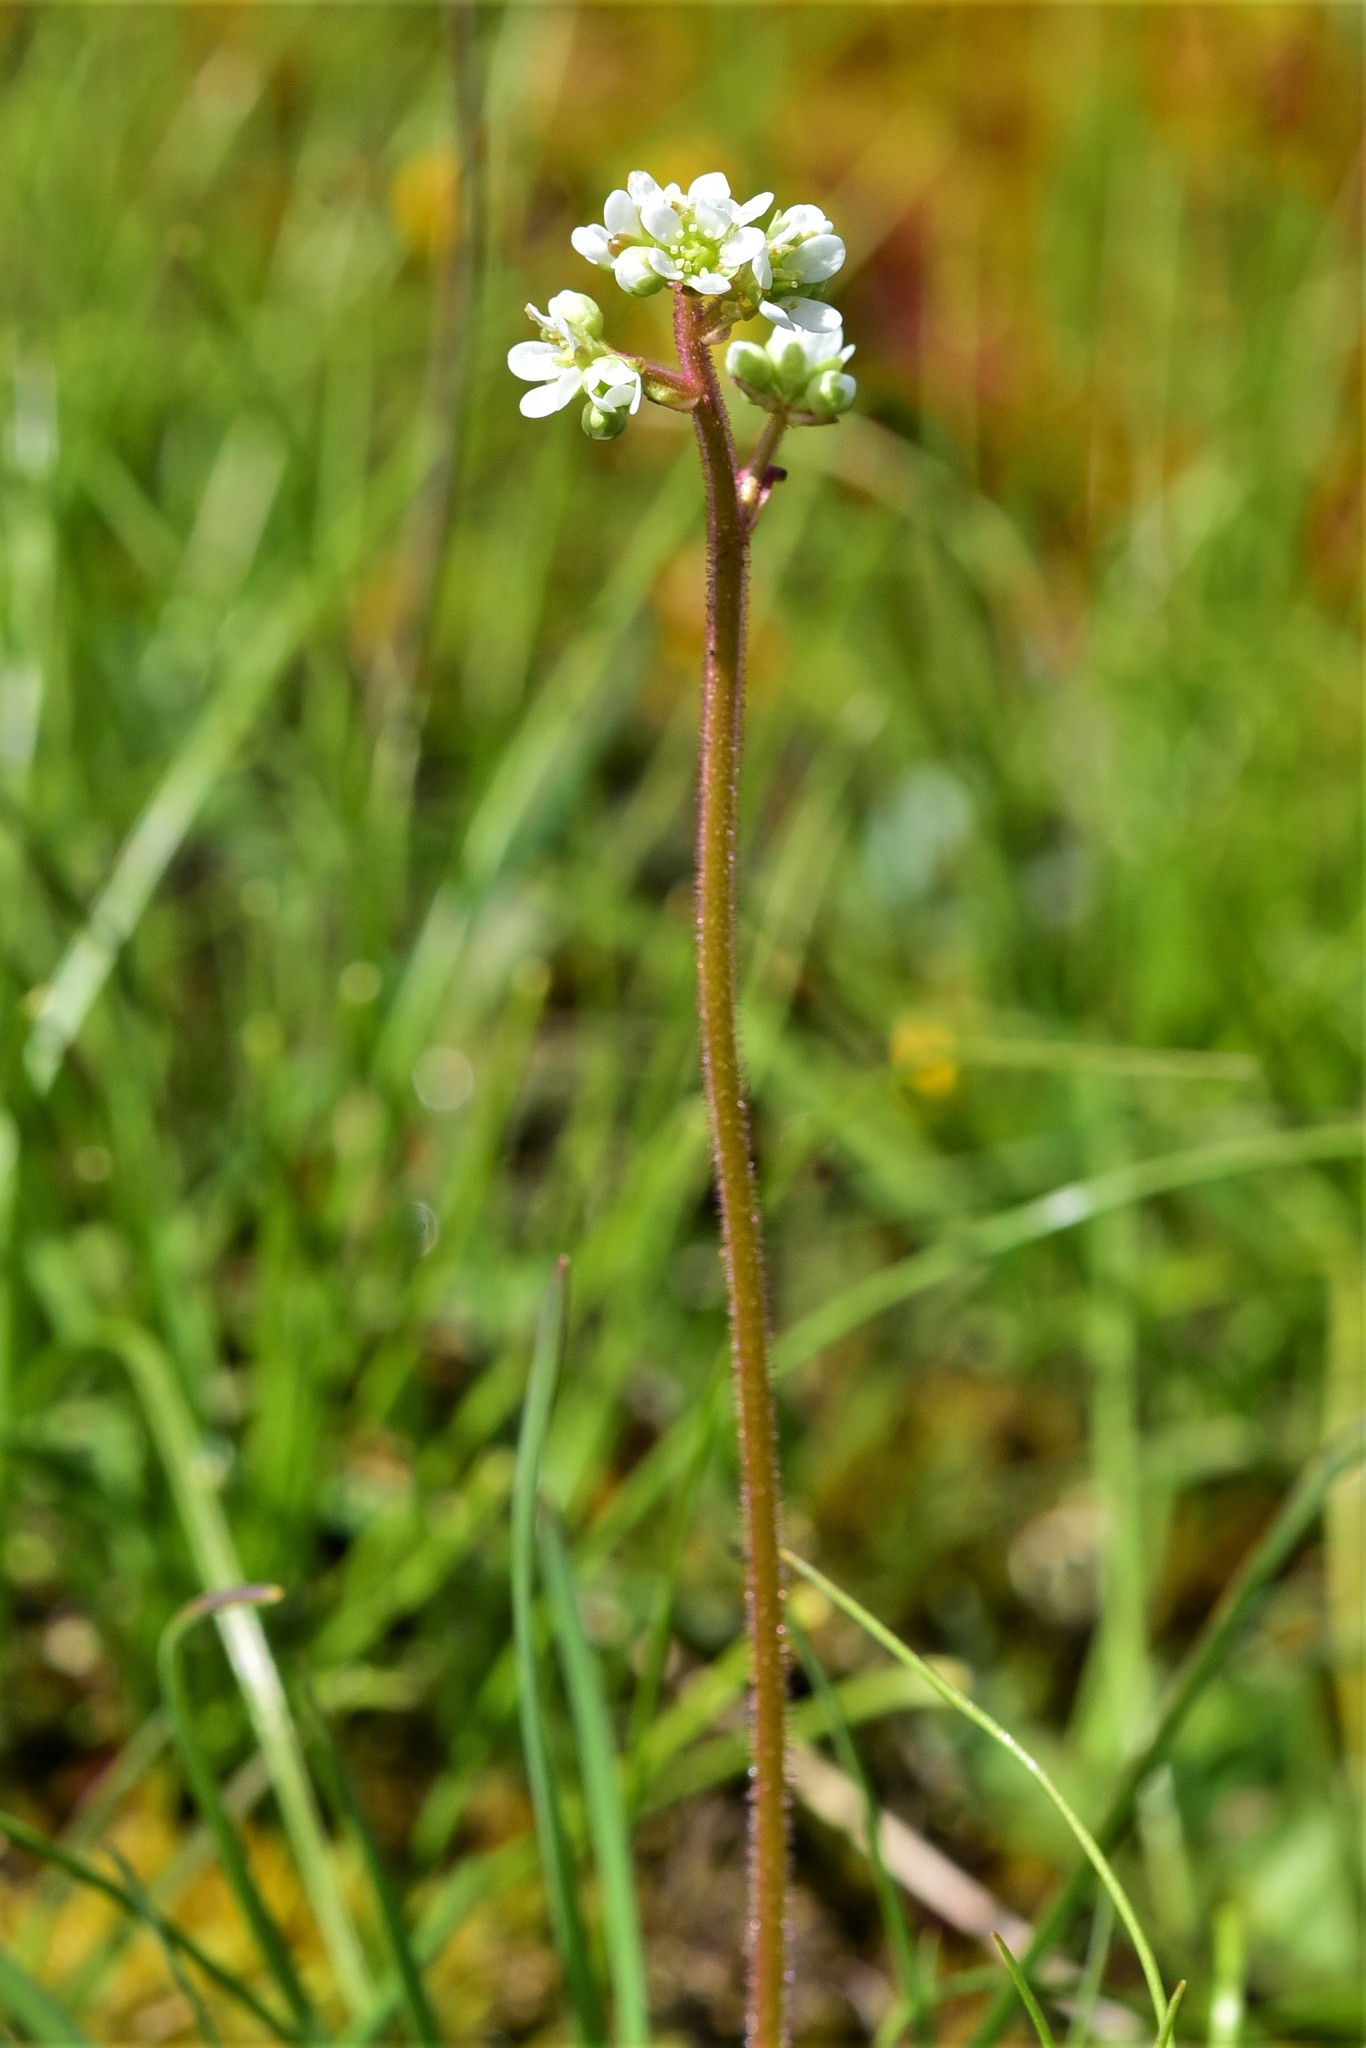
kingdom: Plantae
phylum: Tracheophyta
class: Magnoliopsida
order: Saxifragales
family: Saxifragaceae
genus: Micranthes
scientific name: Micranthes integrifolia
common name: Wholeleaf saxifrage
